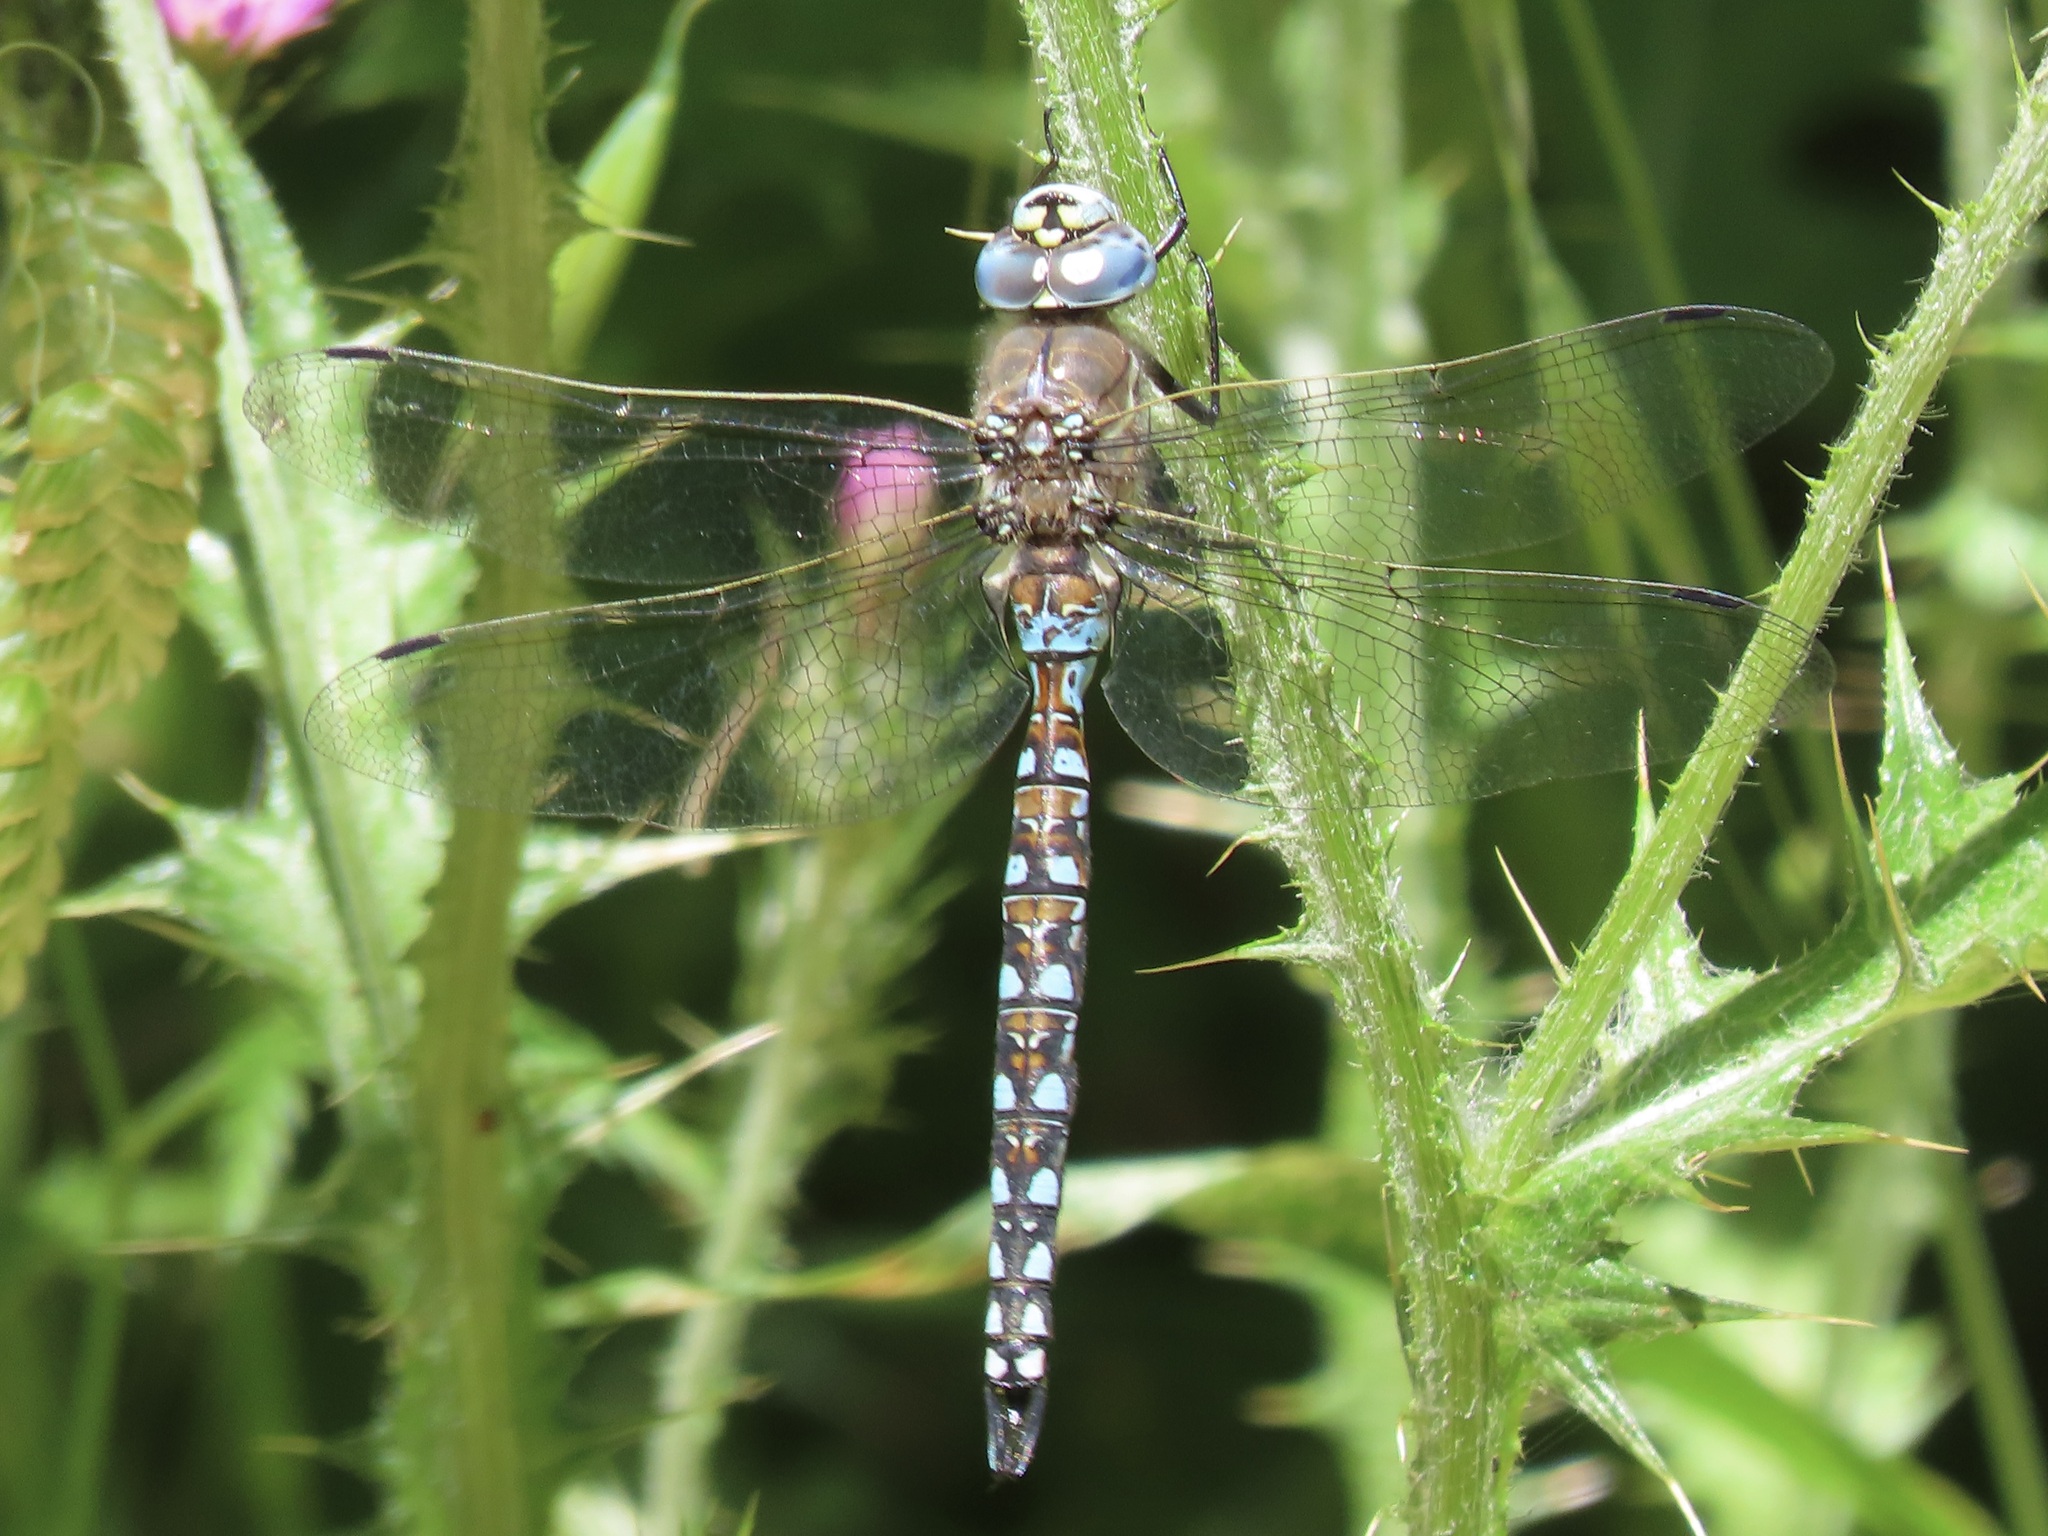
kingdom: Animalia
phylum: Arthropoda
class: Insecta
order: Odonata
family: Aeshnidae
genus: Rhionaeschna
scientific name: Rhionaeschna californica
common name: California darner
